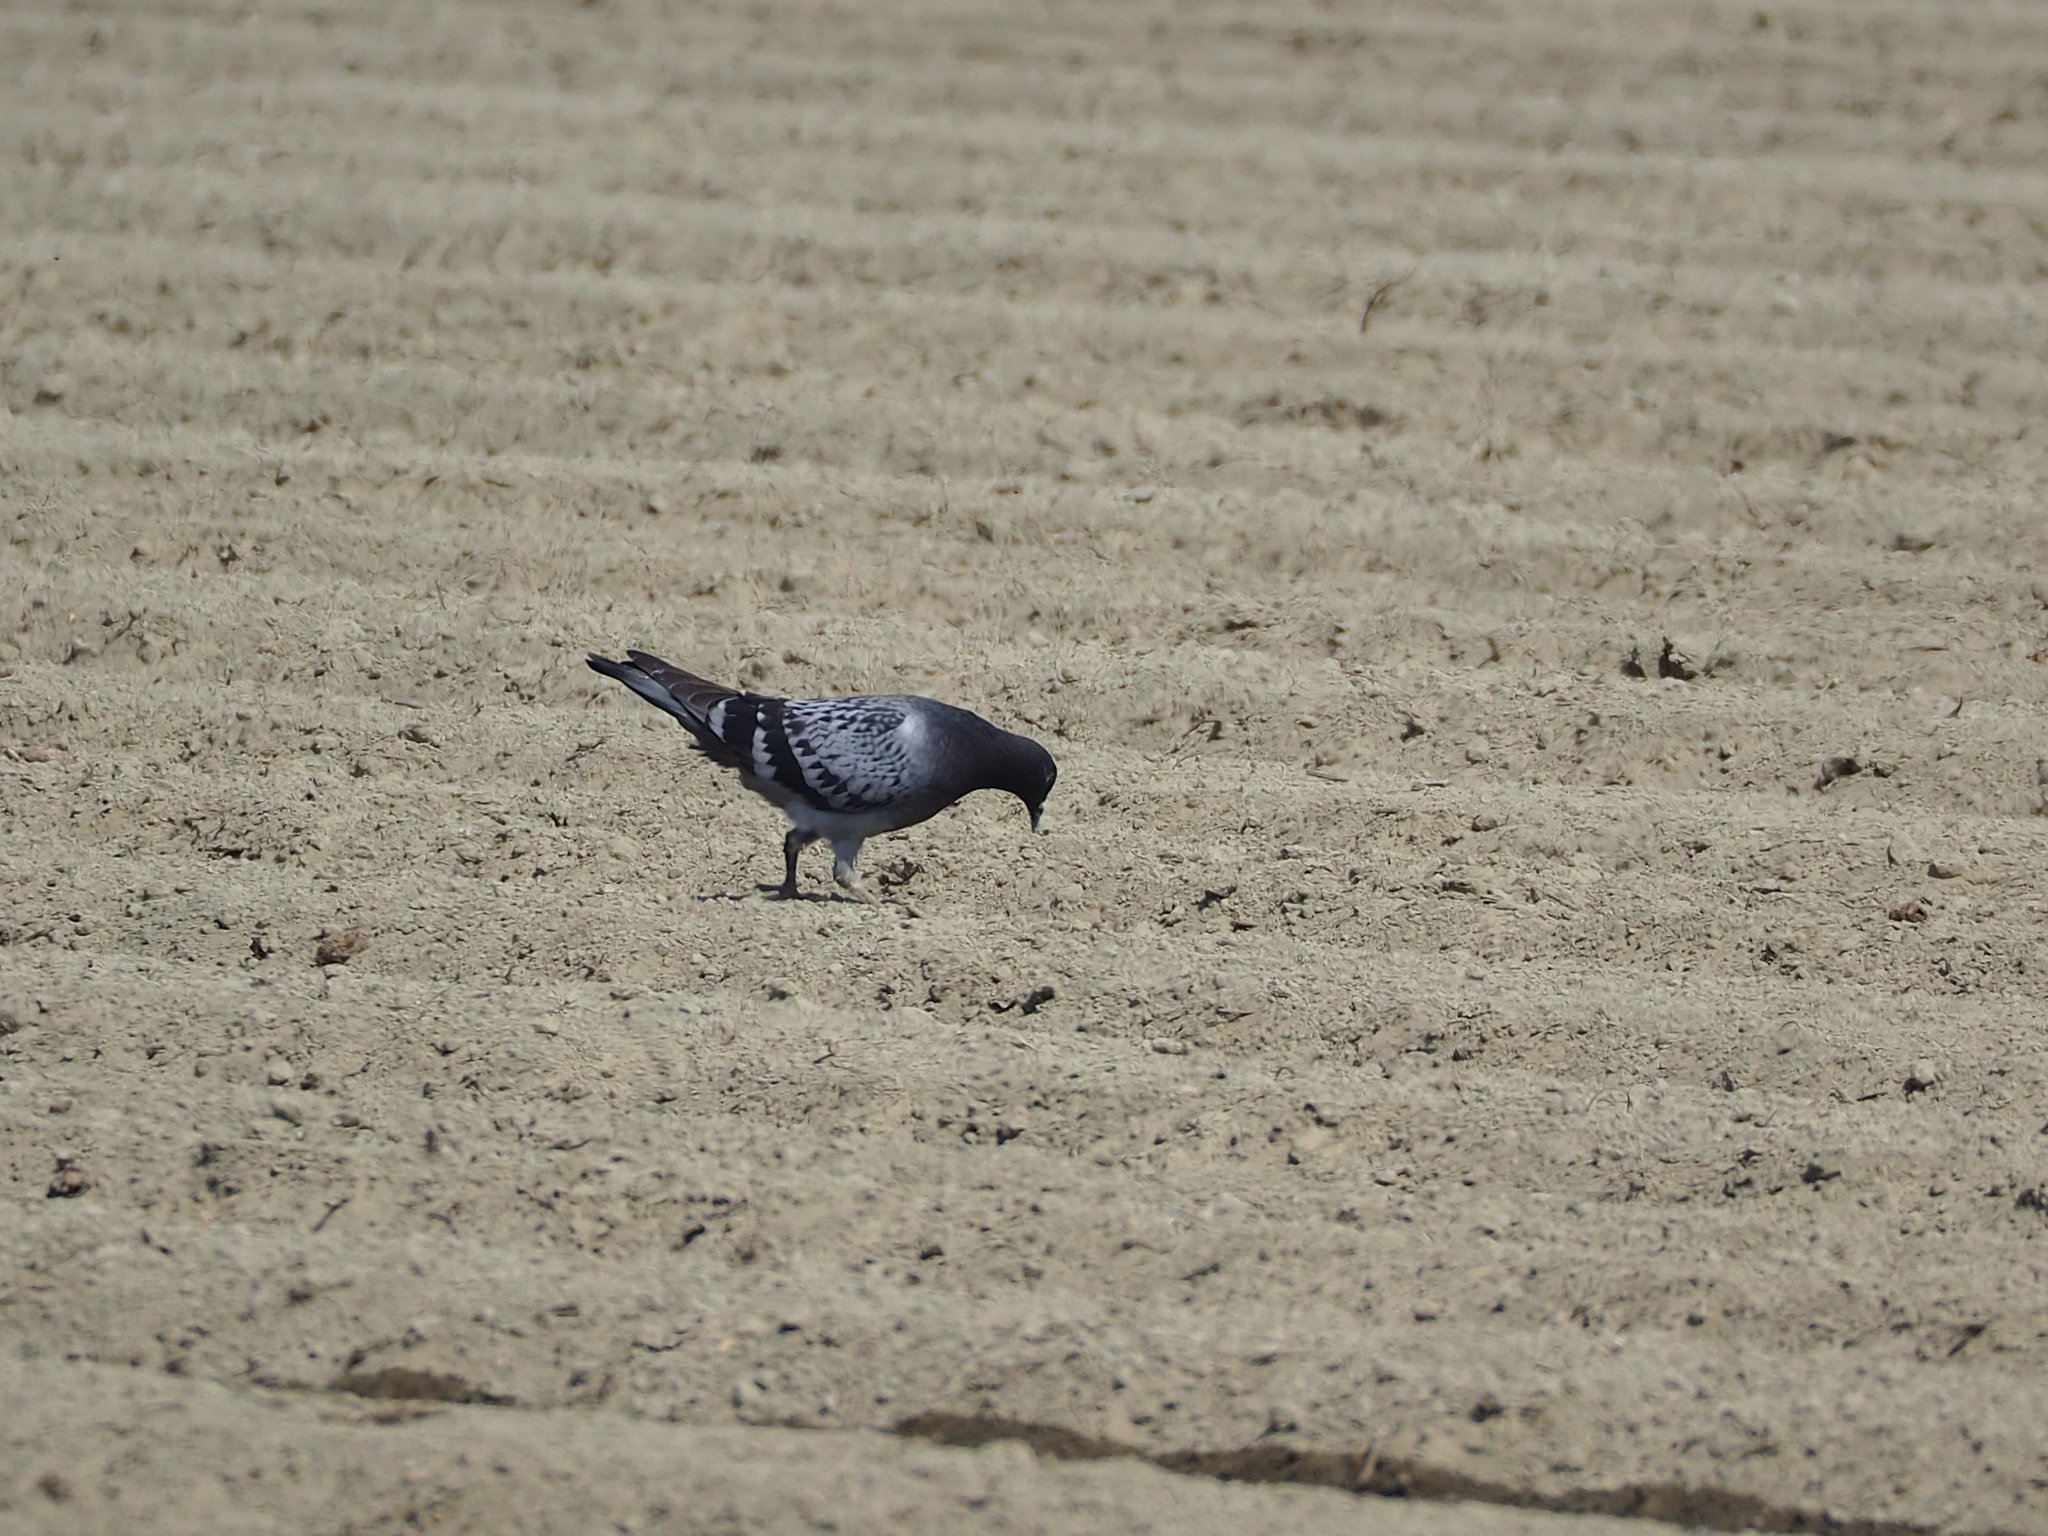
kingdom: Animalia
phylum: Chordata
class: Aves
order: Columbiformes
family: Columbidae
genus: Columba
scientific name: Columba livia
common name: Rock pigeon
